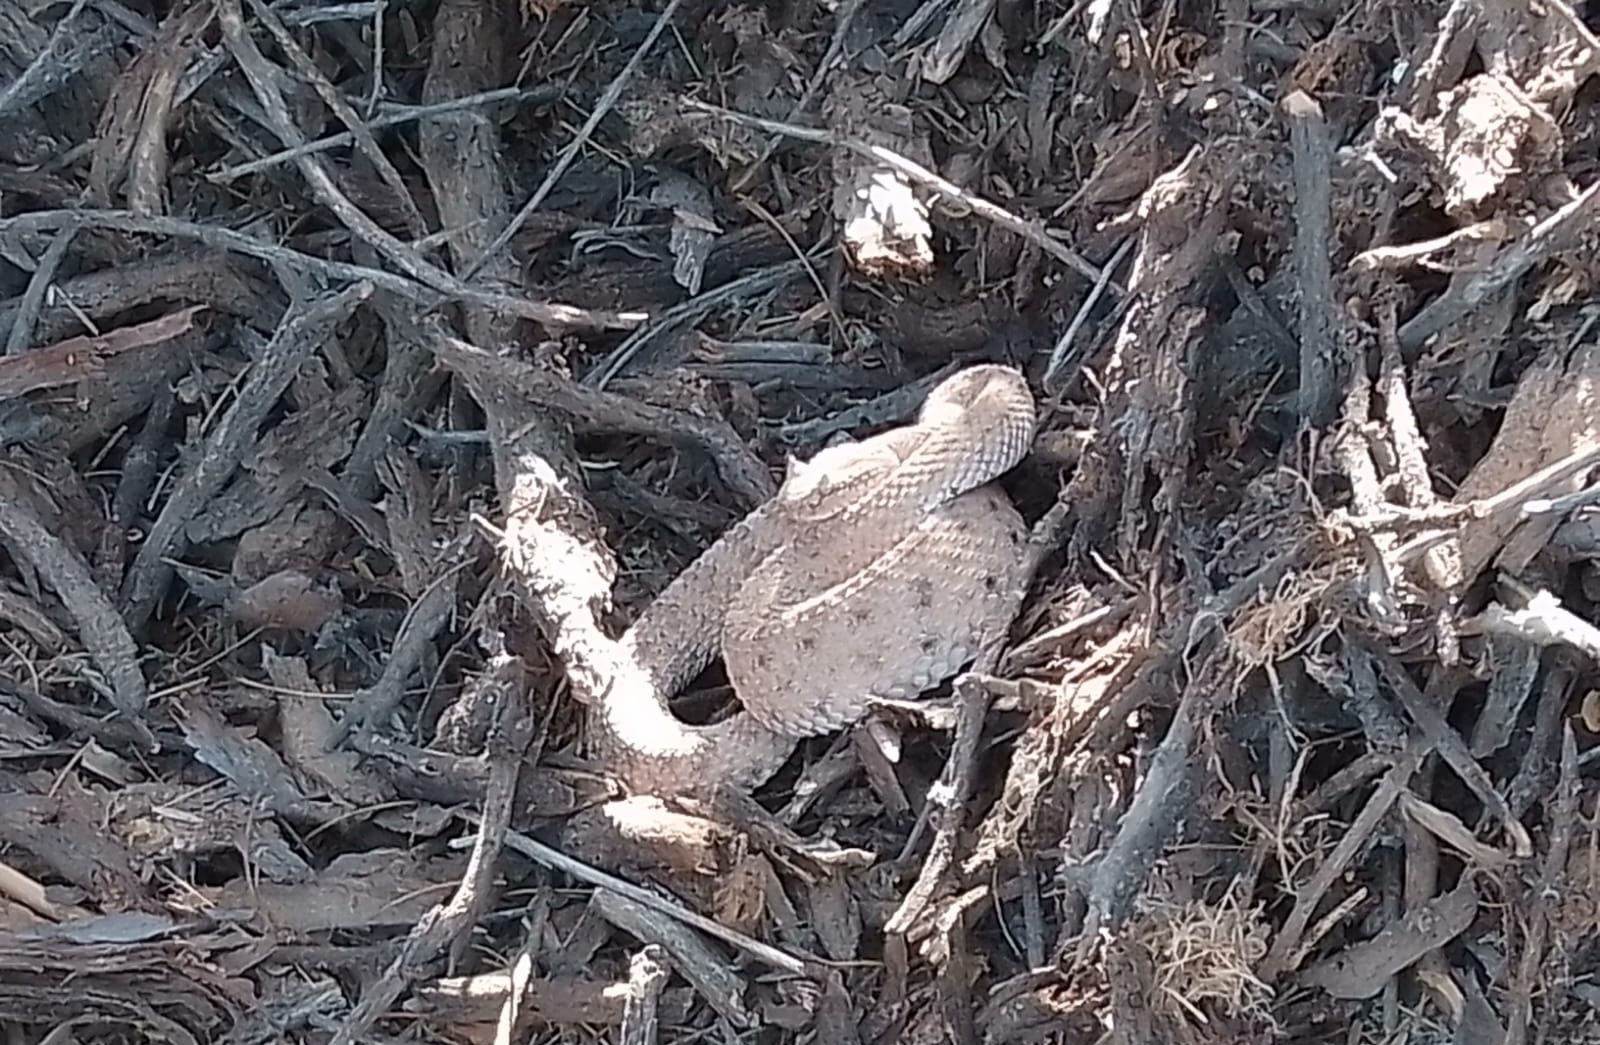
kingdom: Animalia
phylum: Chordata
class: Squamata
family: Viperidae
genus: Crotalus
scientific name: Crotalus cerastes
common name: Sidewinder
